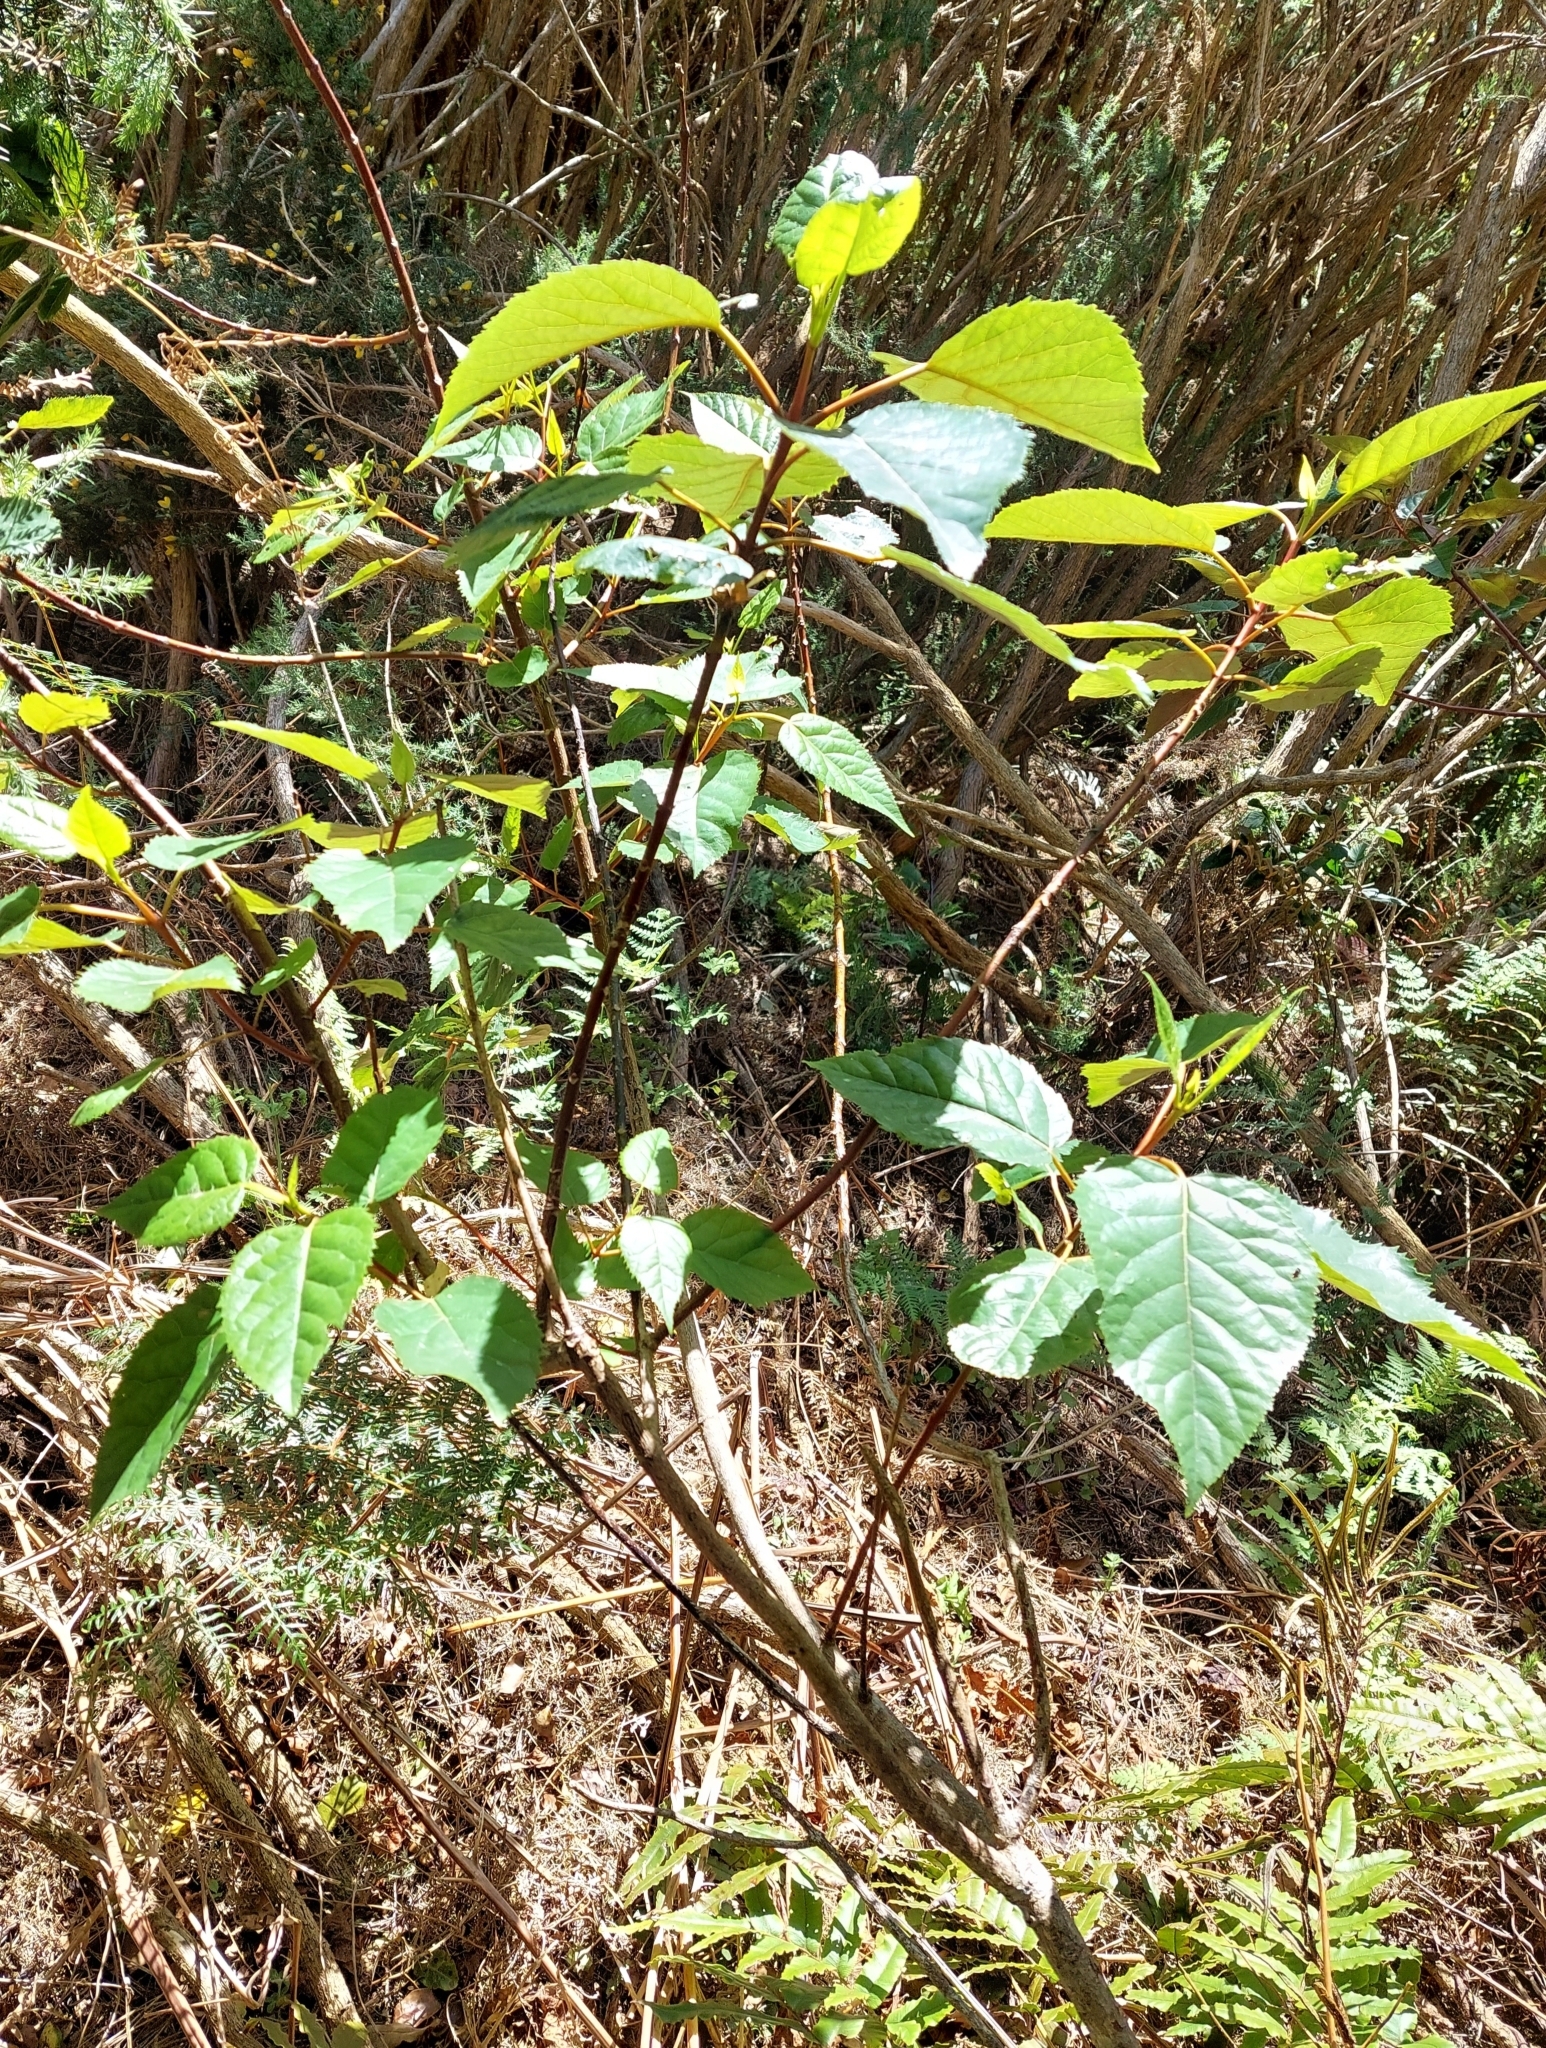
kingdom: Plantae
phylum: Tracheophyta
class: Magnoliopsida
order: Oxalidales
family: Elaeocarpaceae
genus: Aristotelia
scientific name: Aristotelia serrata
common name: New zealand wineberry
